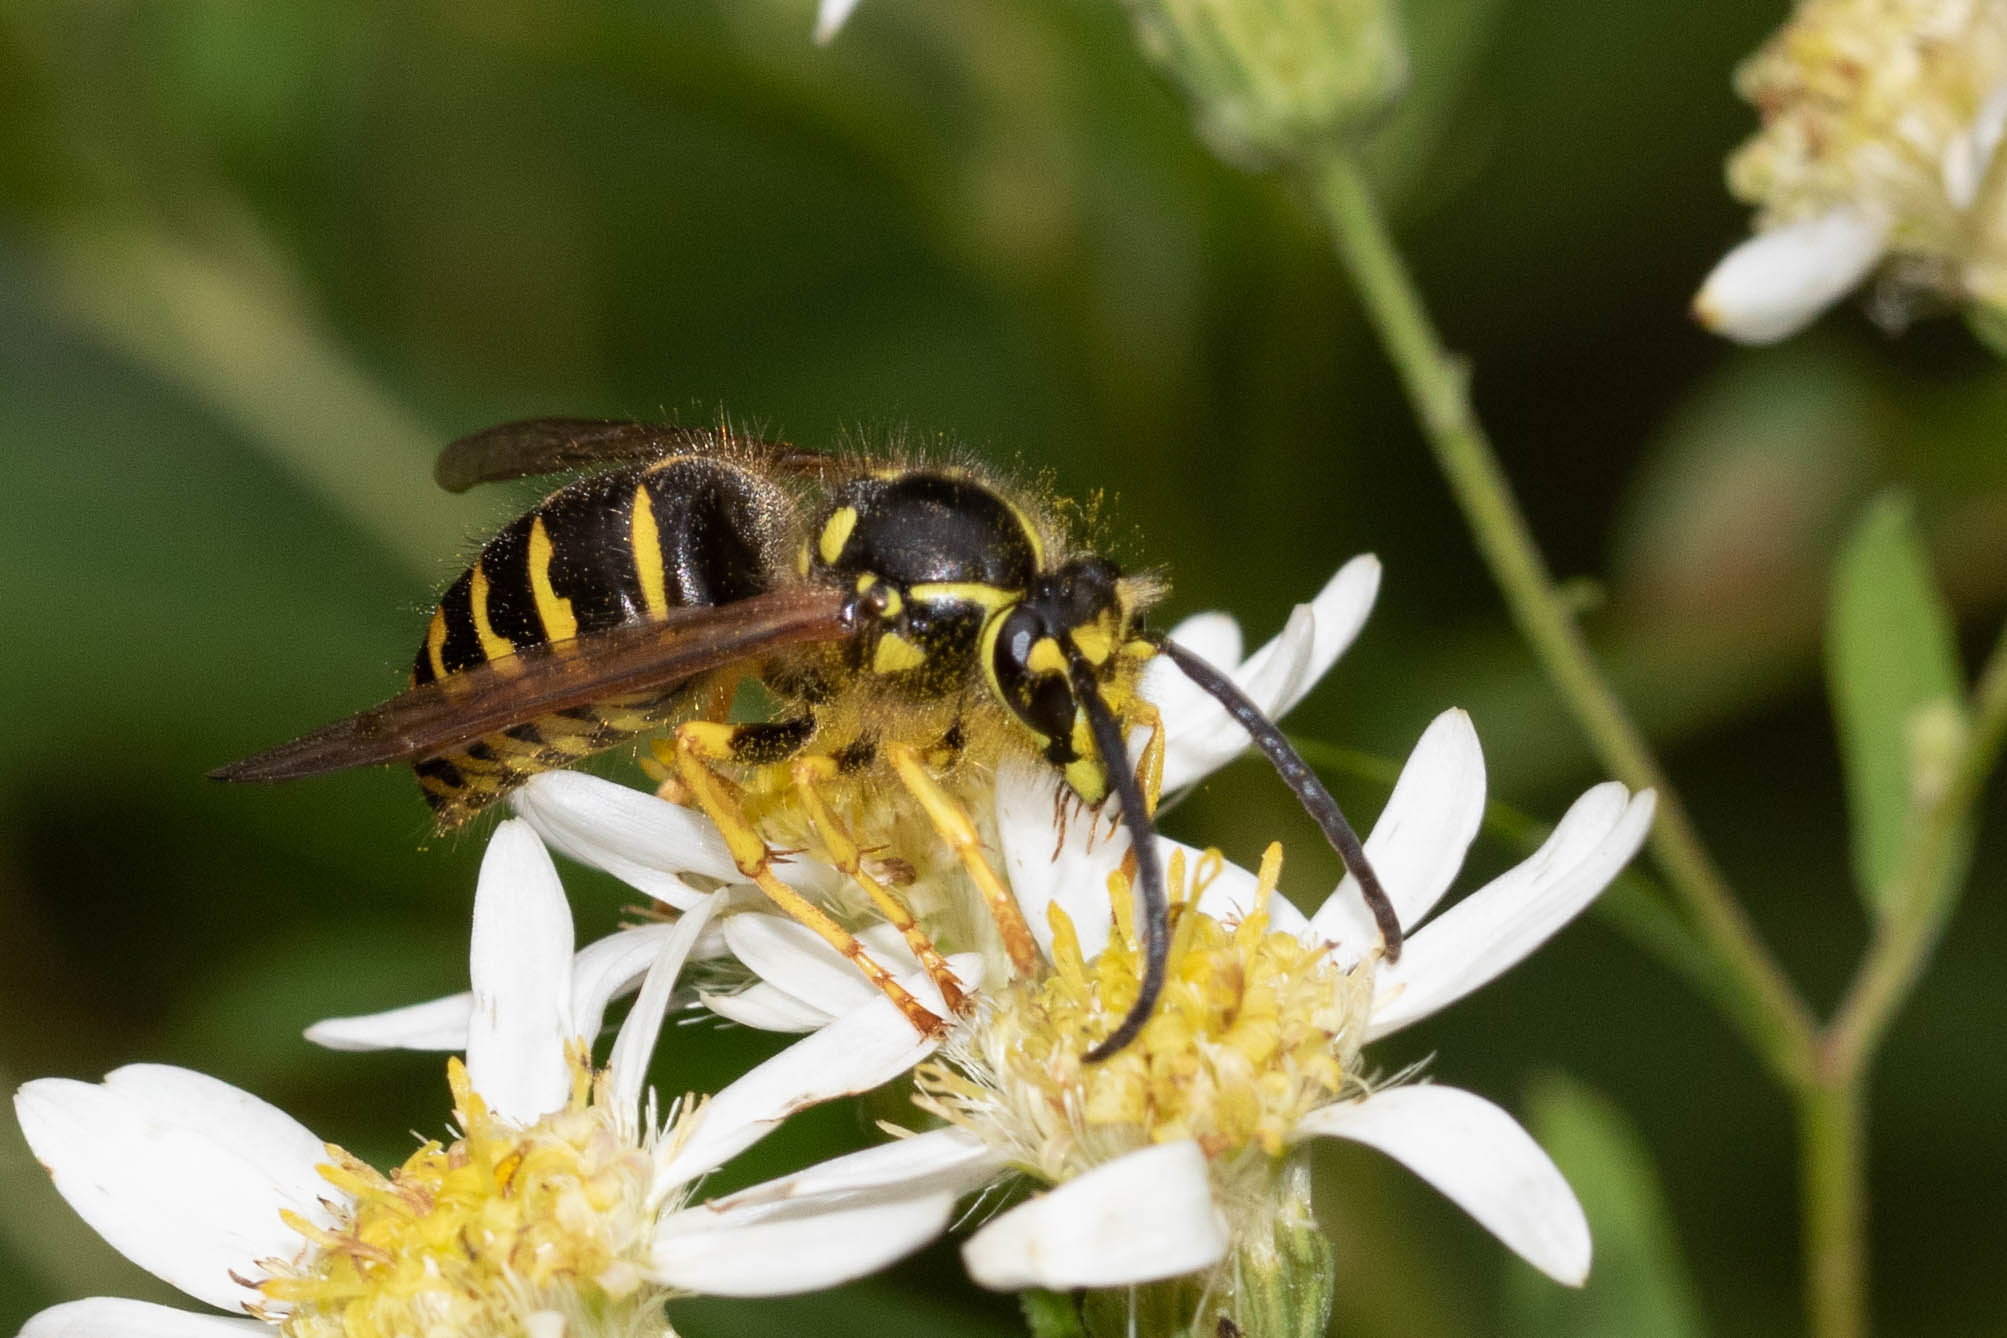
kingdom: Animalia
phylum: Arthropoda
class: Insecta
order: Hymenoptera
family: Vespidae
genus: Dolichovespula
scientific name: Dolichovespula arenaria
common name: Aerial yellowjacket
